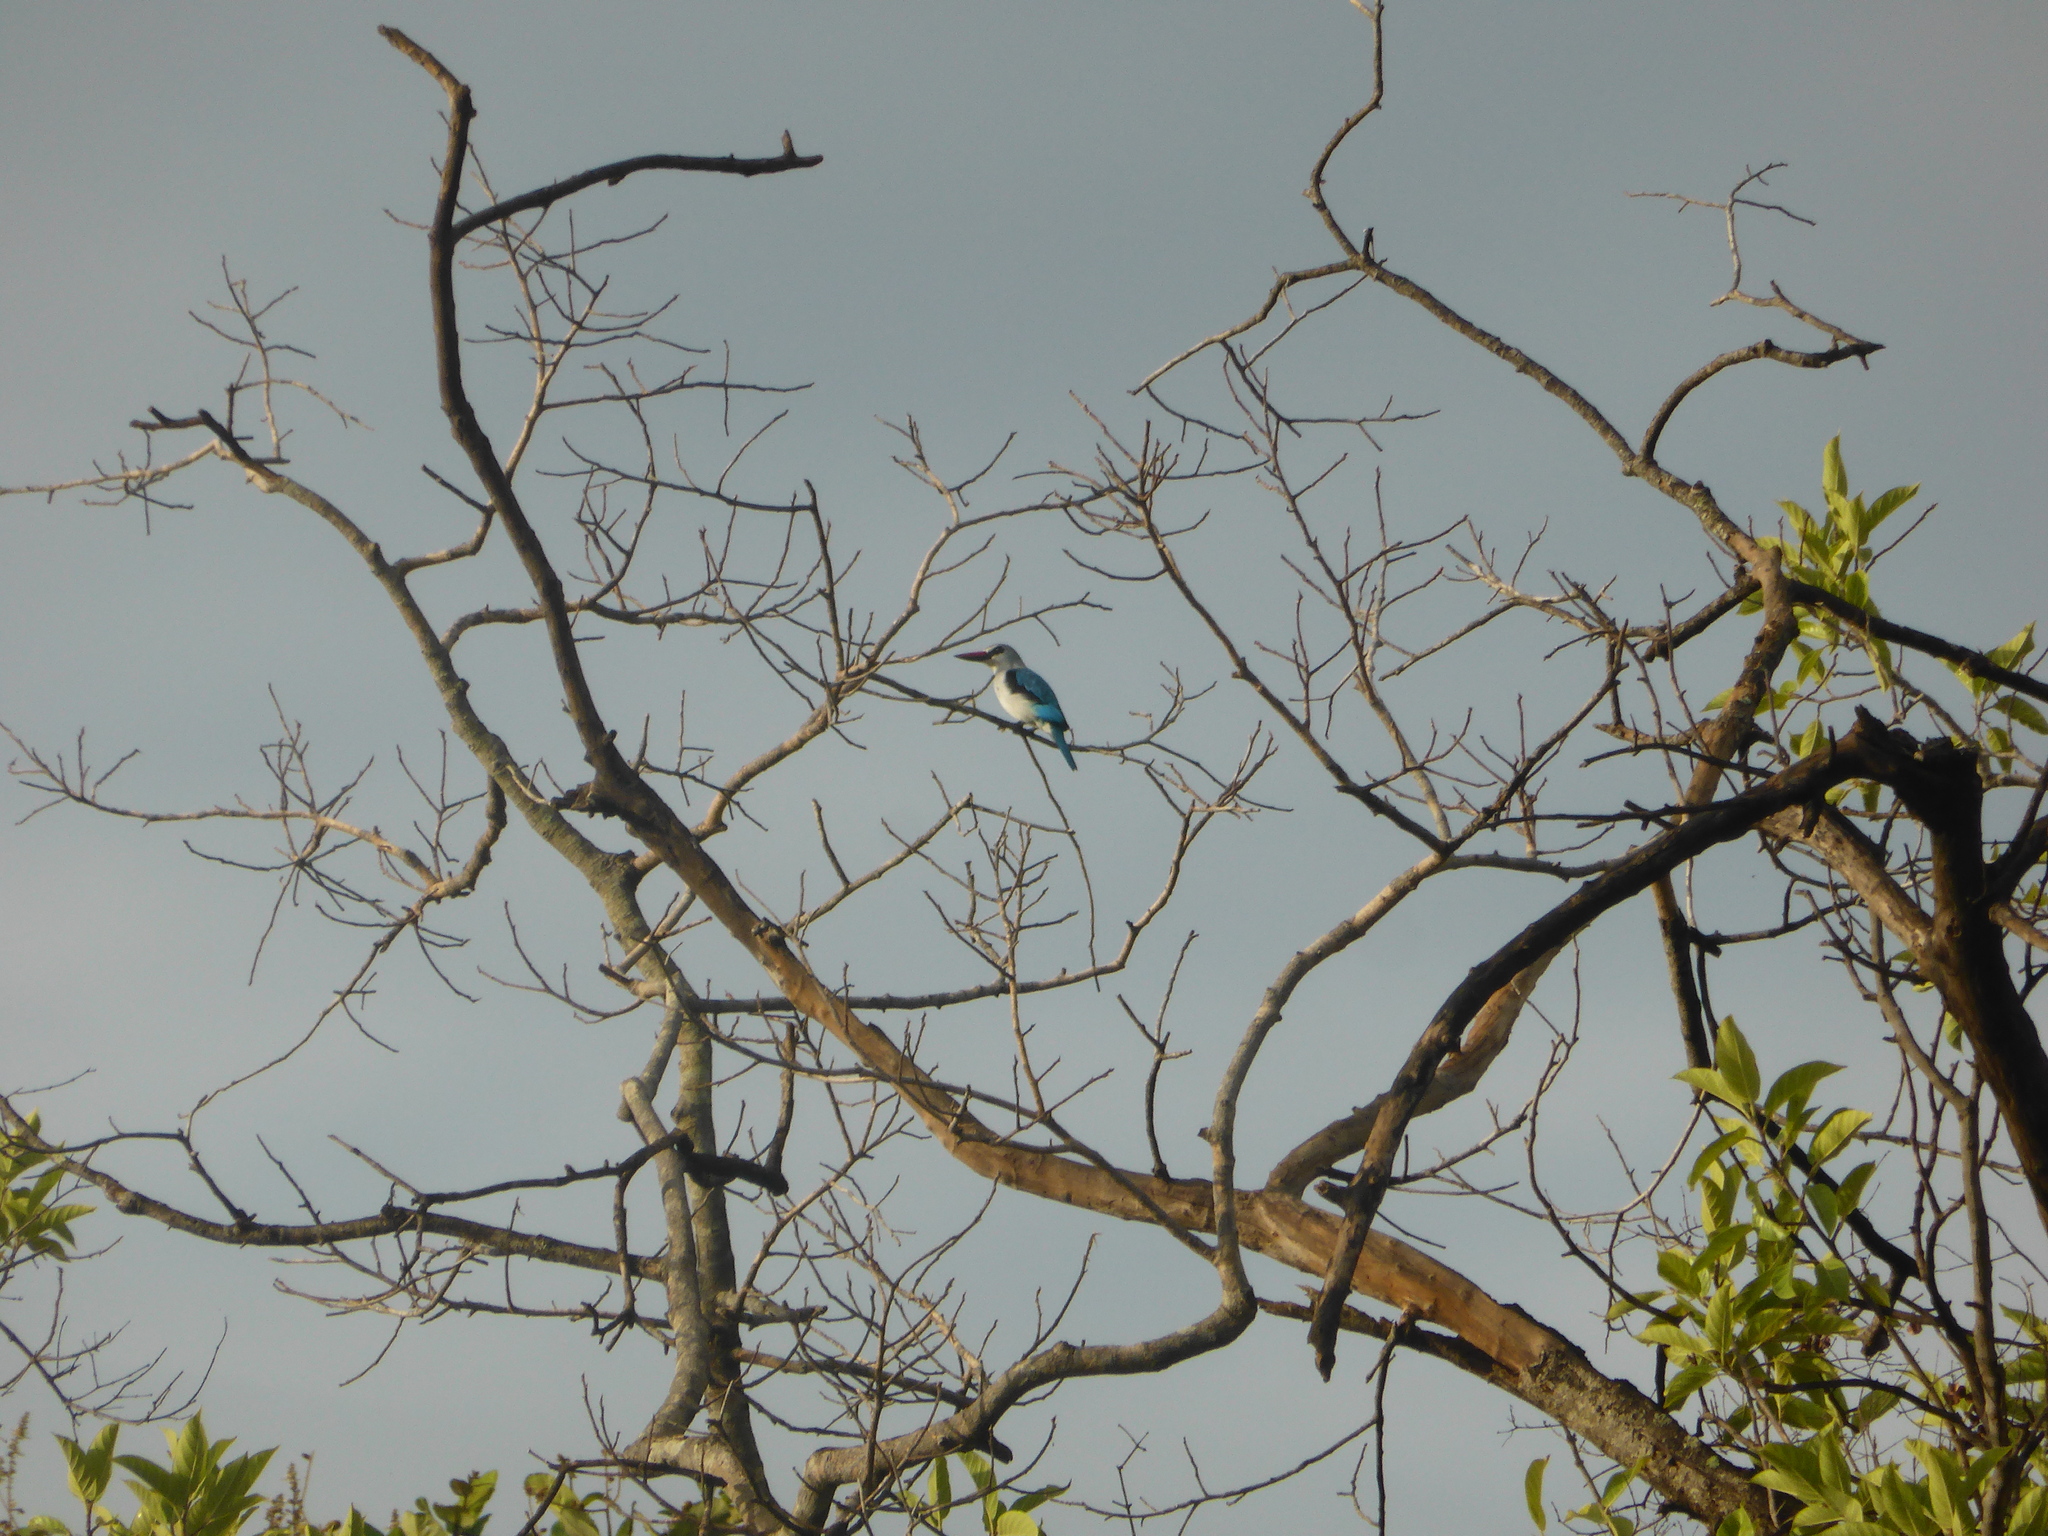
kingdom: Animalia
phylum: Chordata
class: Aves
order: Coraciiformes
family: Alcedinidae
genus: Halcyon
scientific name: Halcyon senegalensis
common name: Woodland kingfisher
